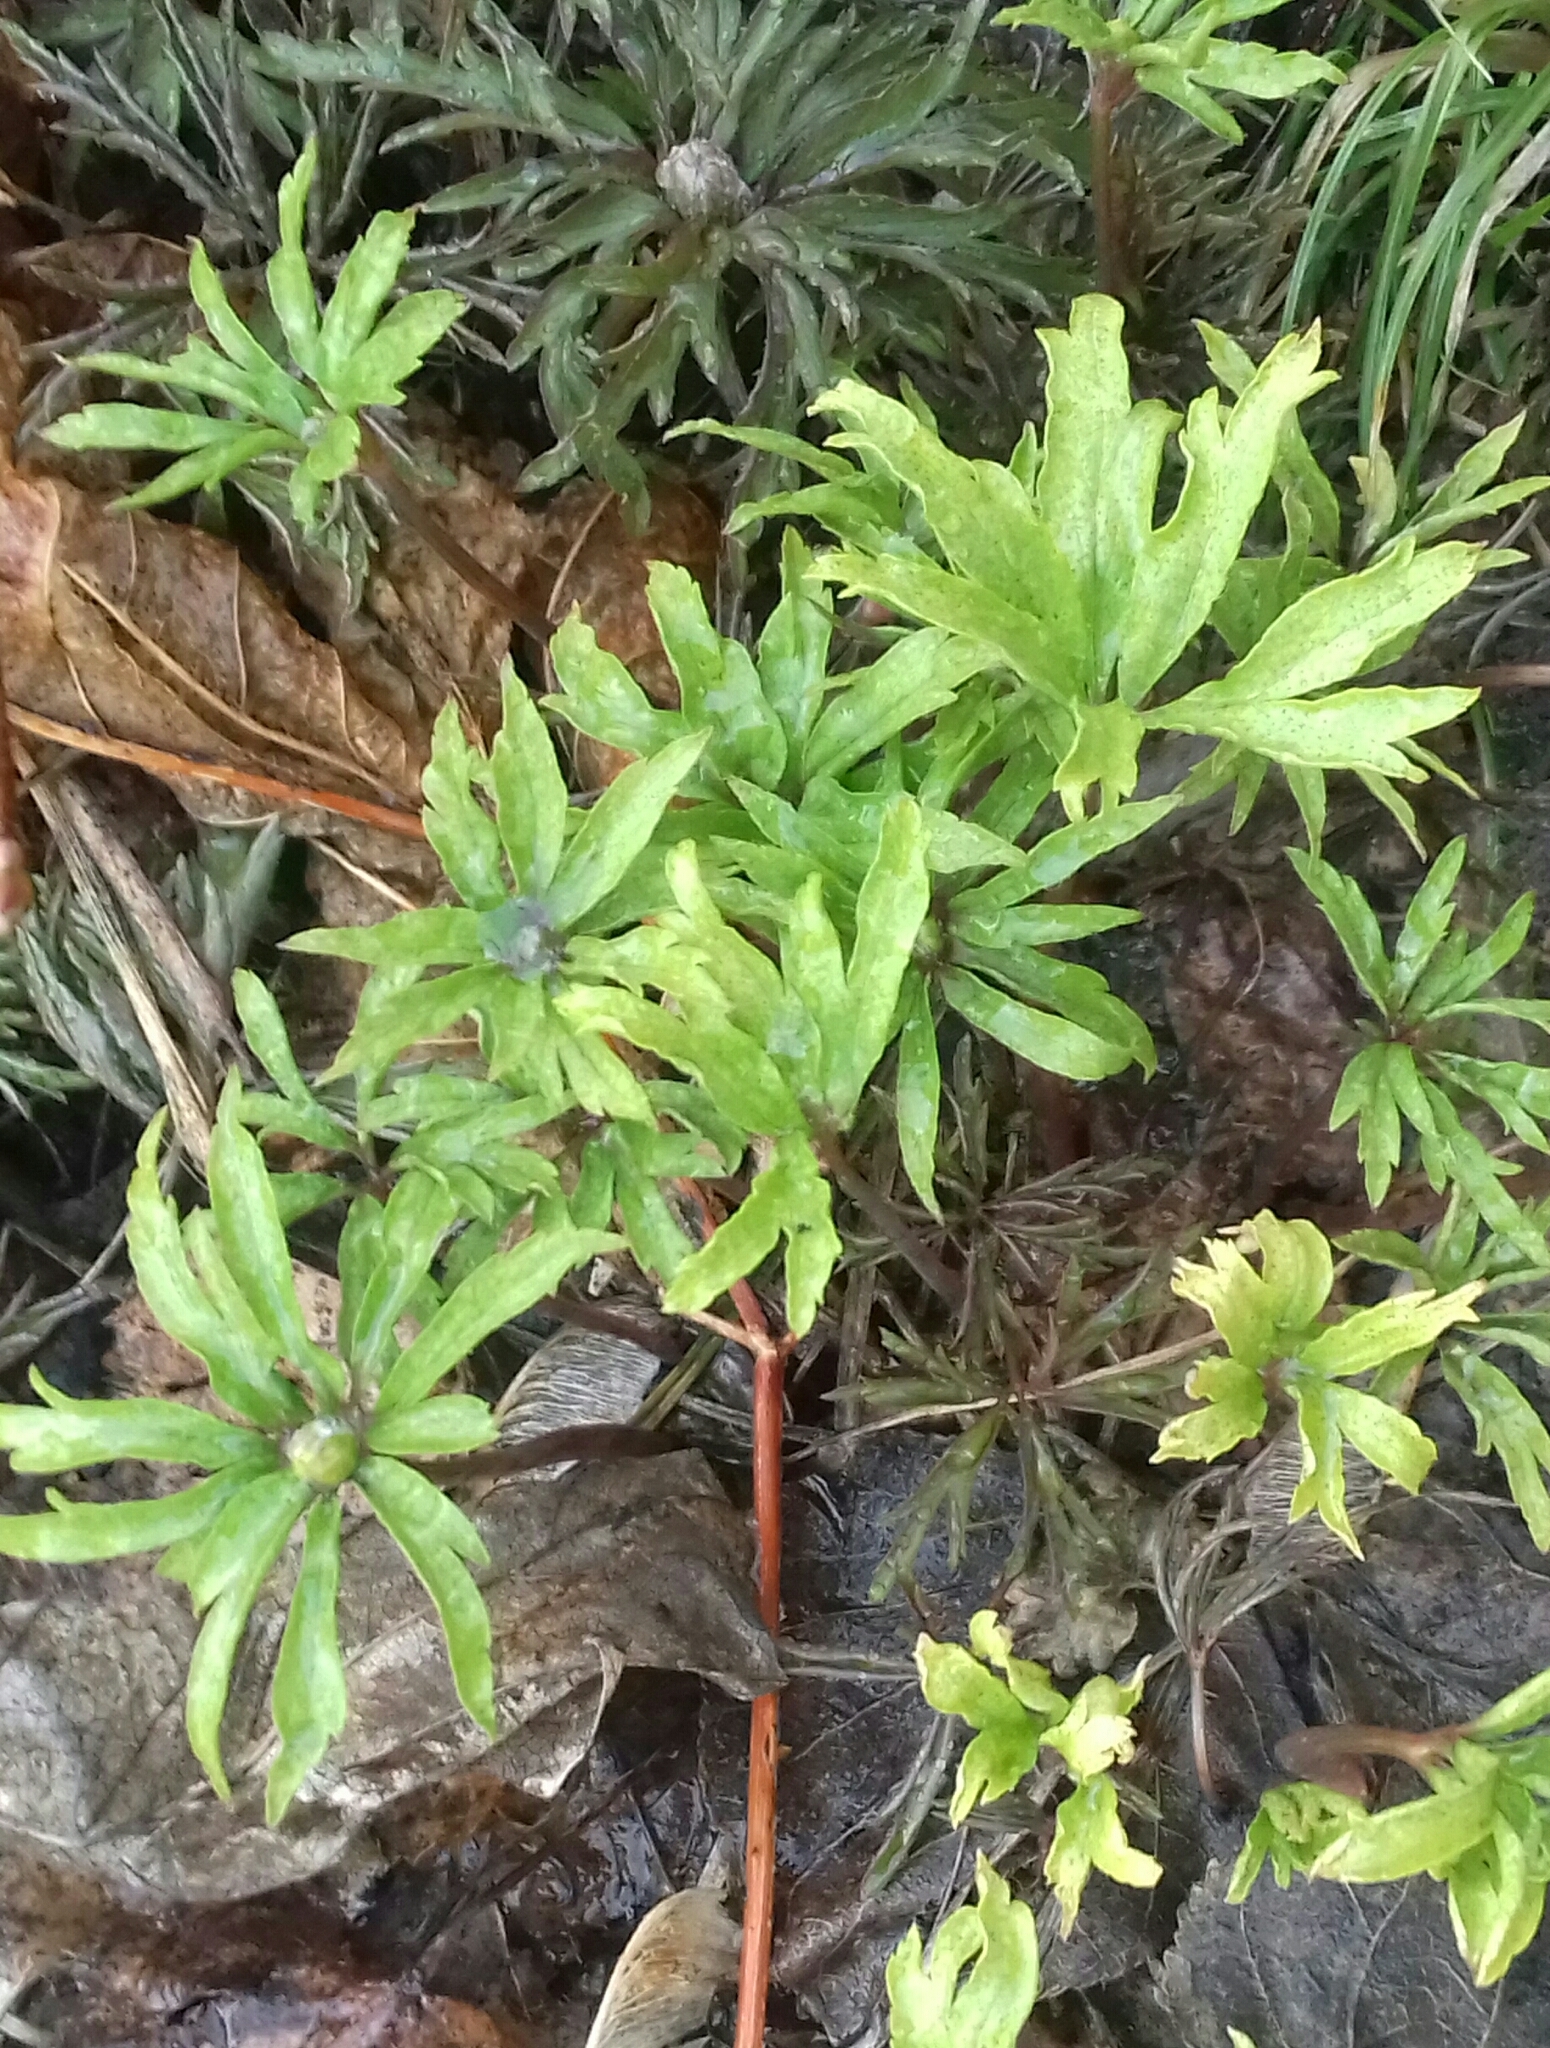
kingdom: Plantae
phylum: Tracheophyta
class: Magnoliopsida
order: Ranunculales
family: Ranunculaceae
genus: Anemone
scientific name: Anemone ranunculoides
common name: Yellow anemone
